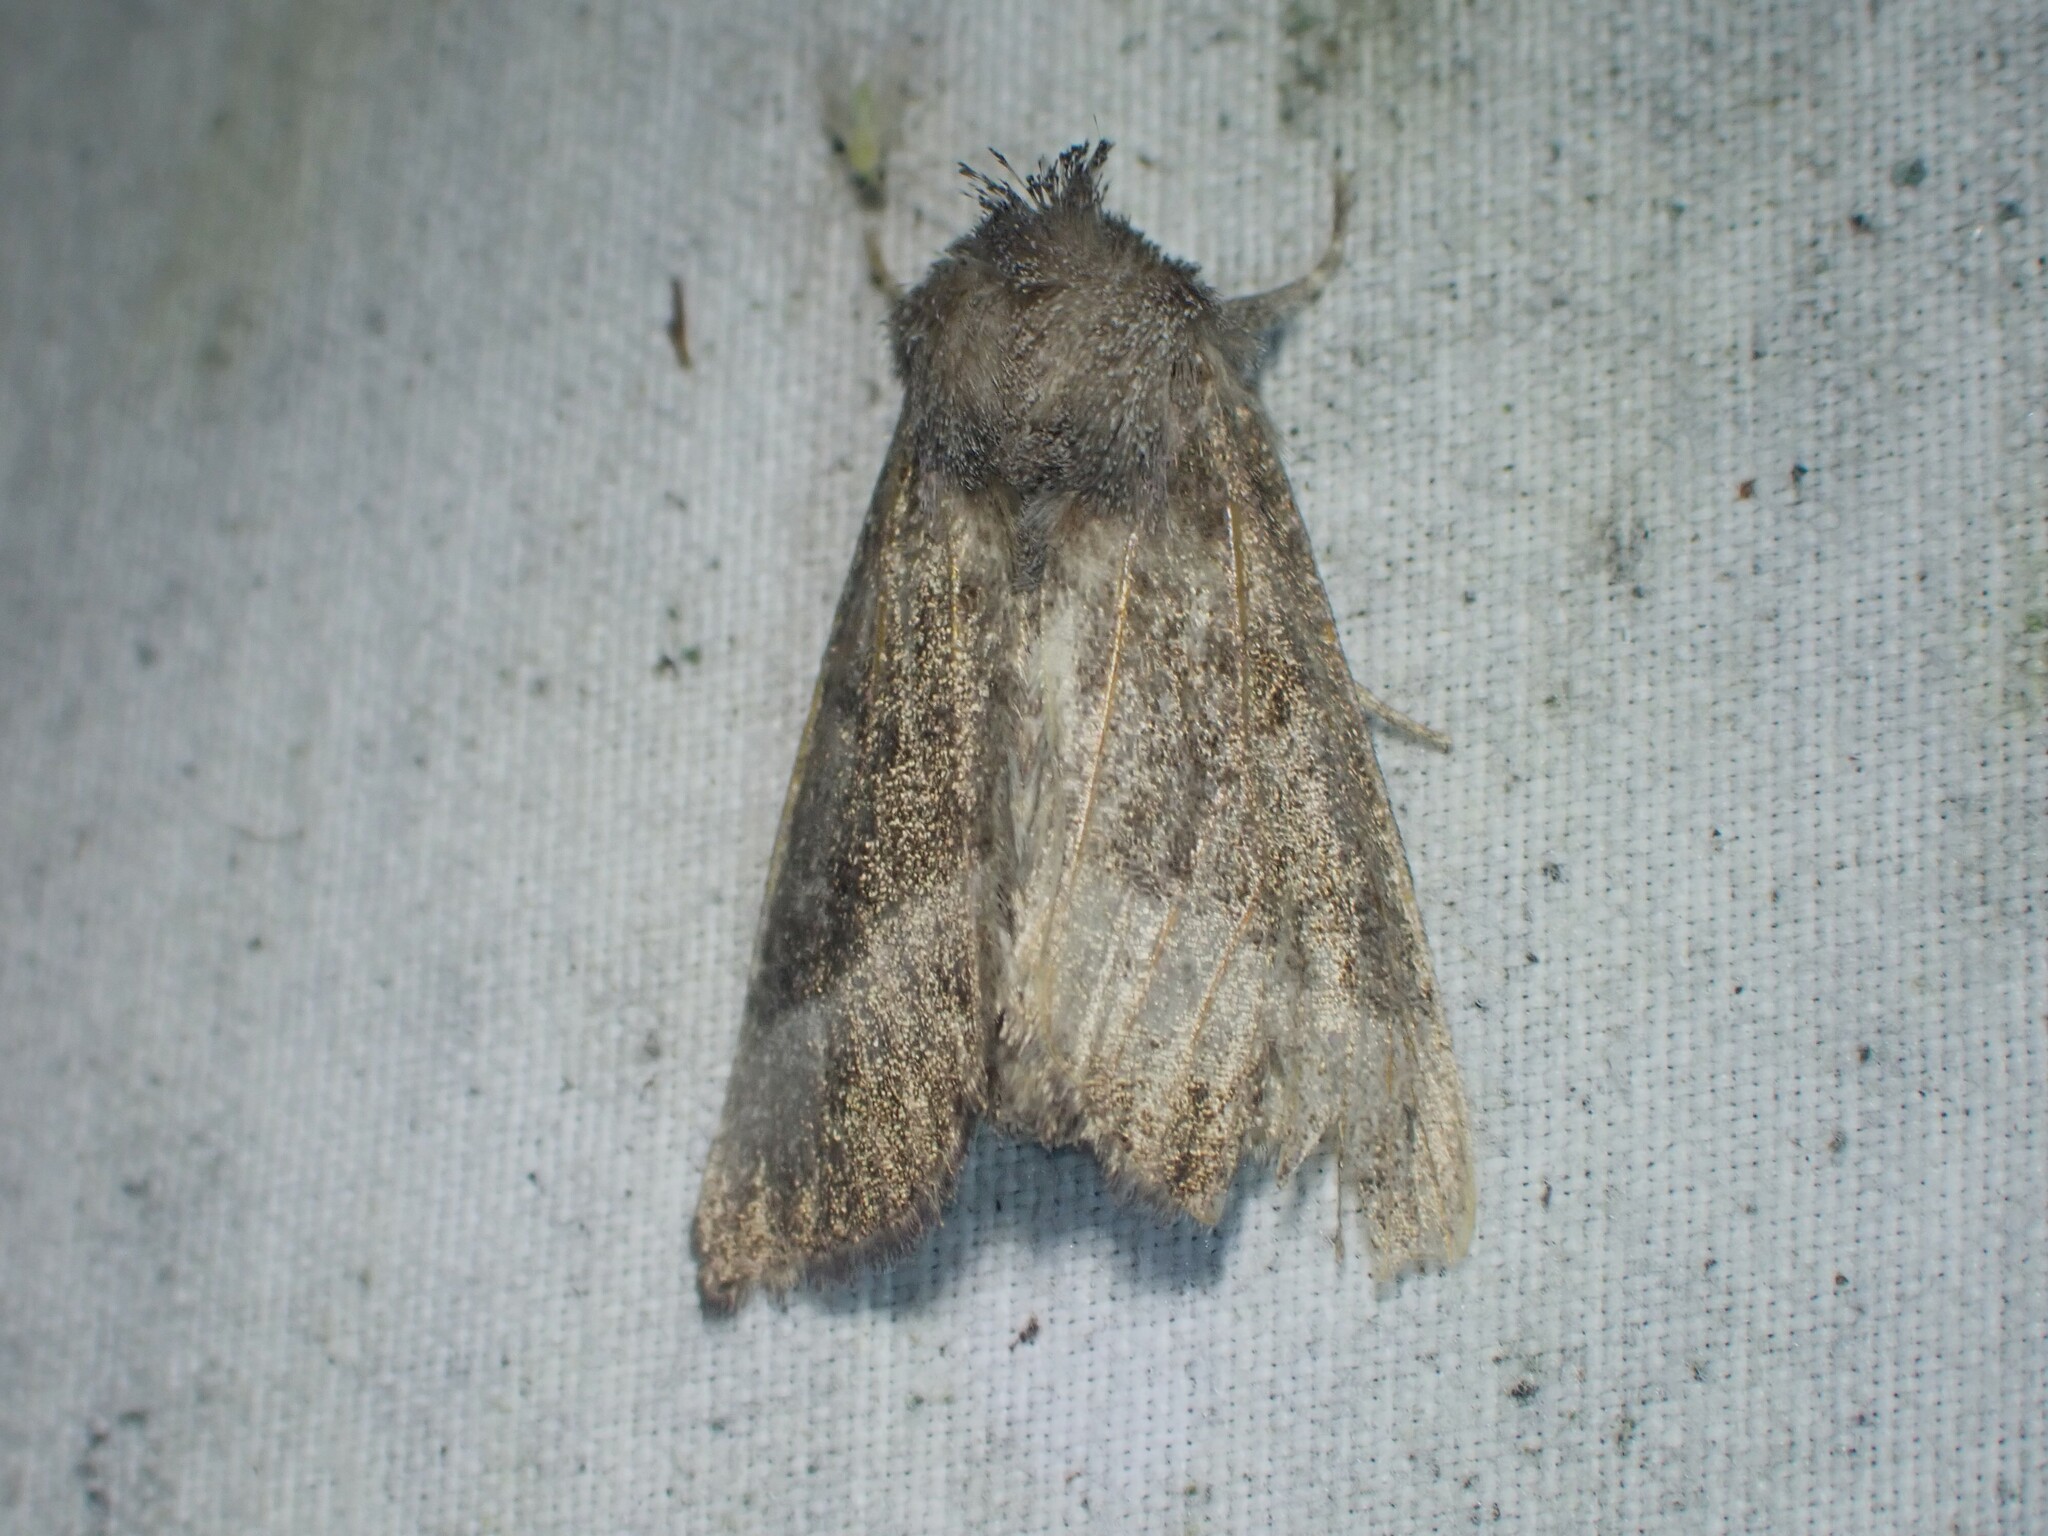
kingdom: Animalia
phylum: Arthropoda
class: Insecta
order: Lepidoptera
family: Noctuidae
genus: Papaipema
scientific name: Papaipema eupatorii
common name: Eupatorium borer moth
